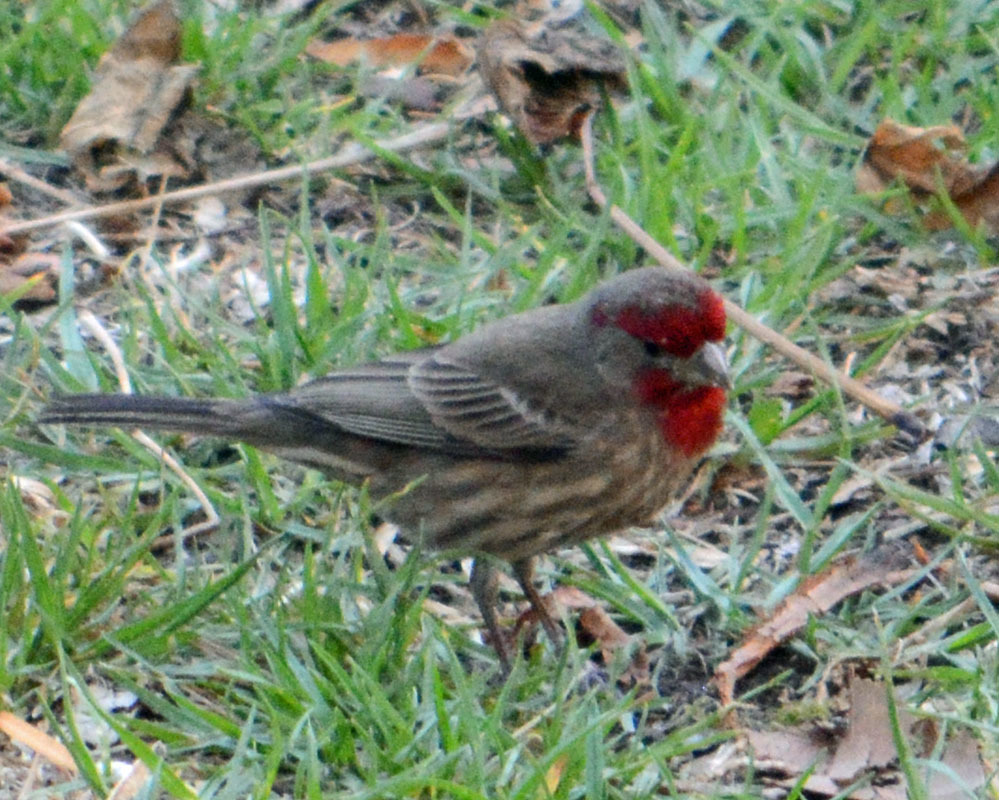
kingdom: Animalia
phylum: Chordata
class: Aves
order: Passeriformes
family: Fringillidae
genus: Haemorhous
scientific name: Haemorhous mexicanus
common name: House finch
